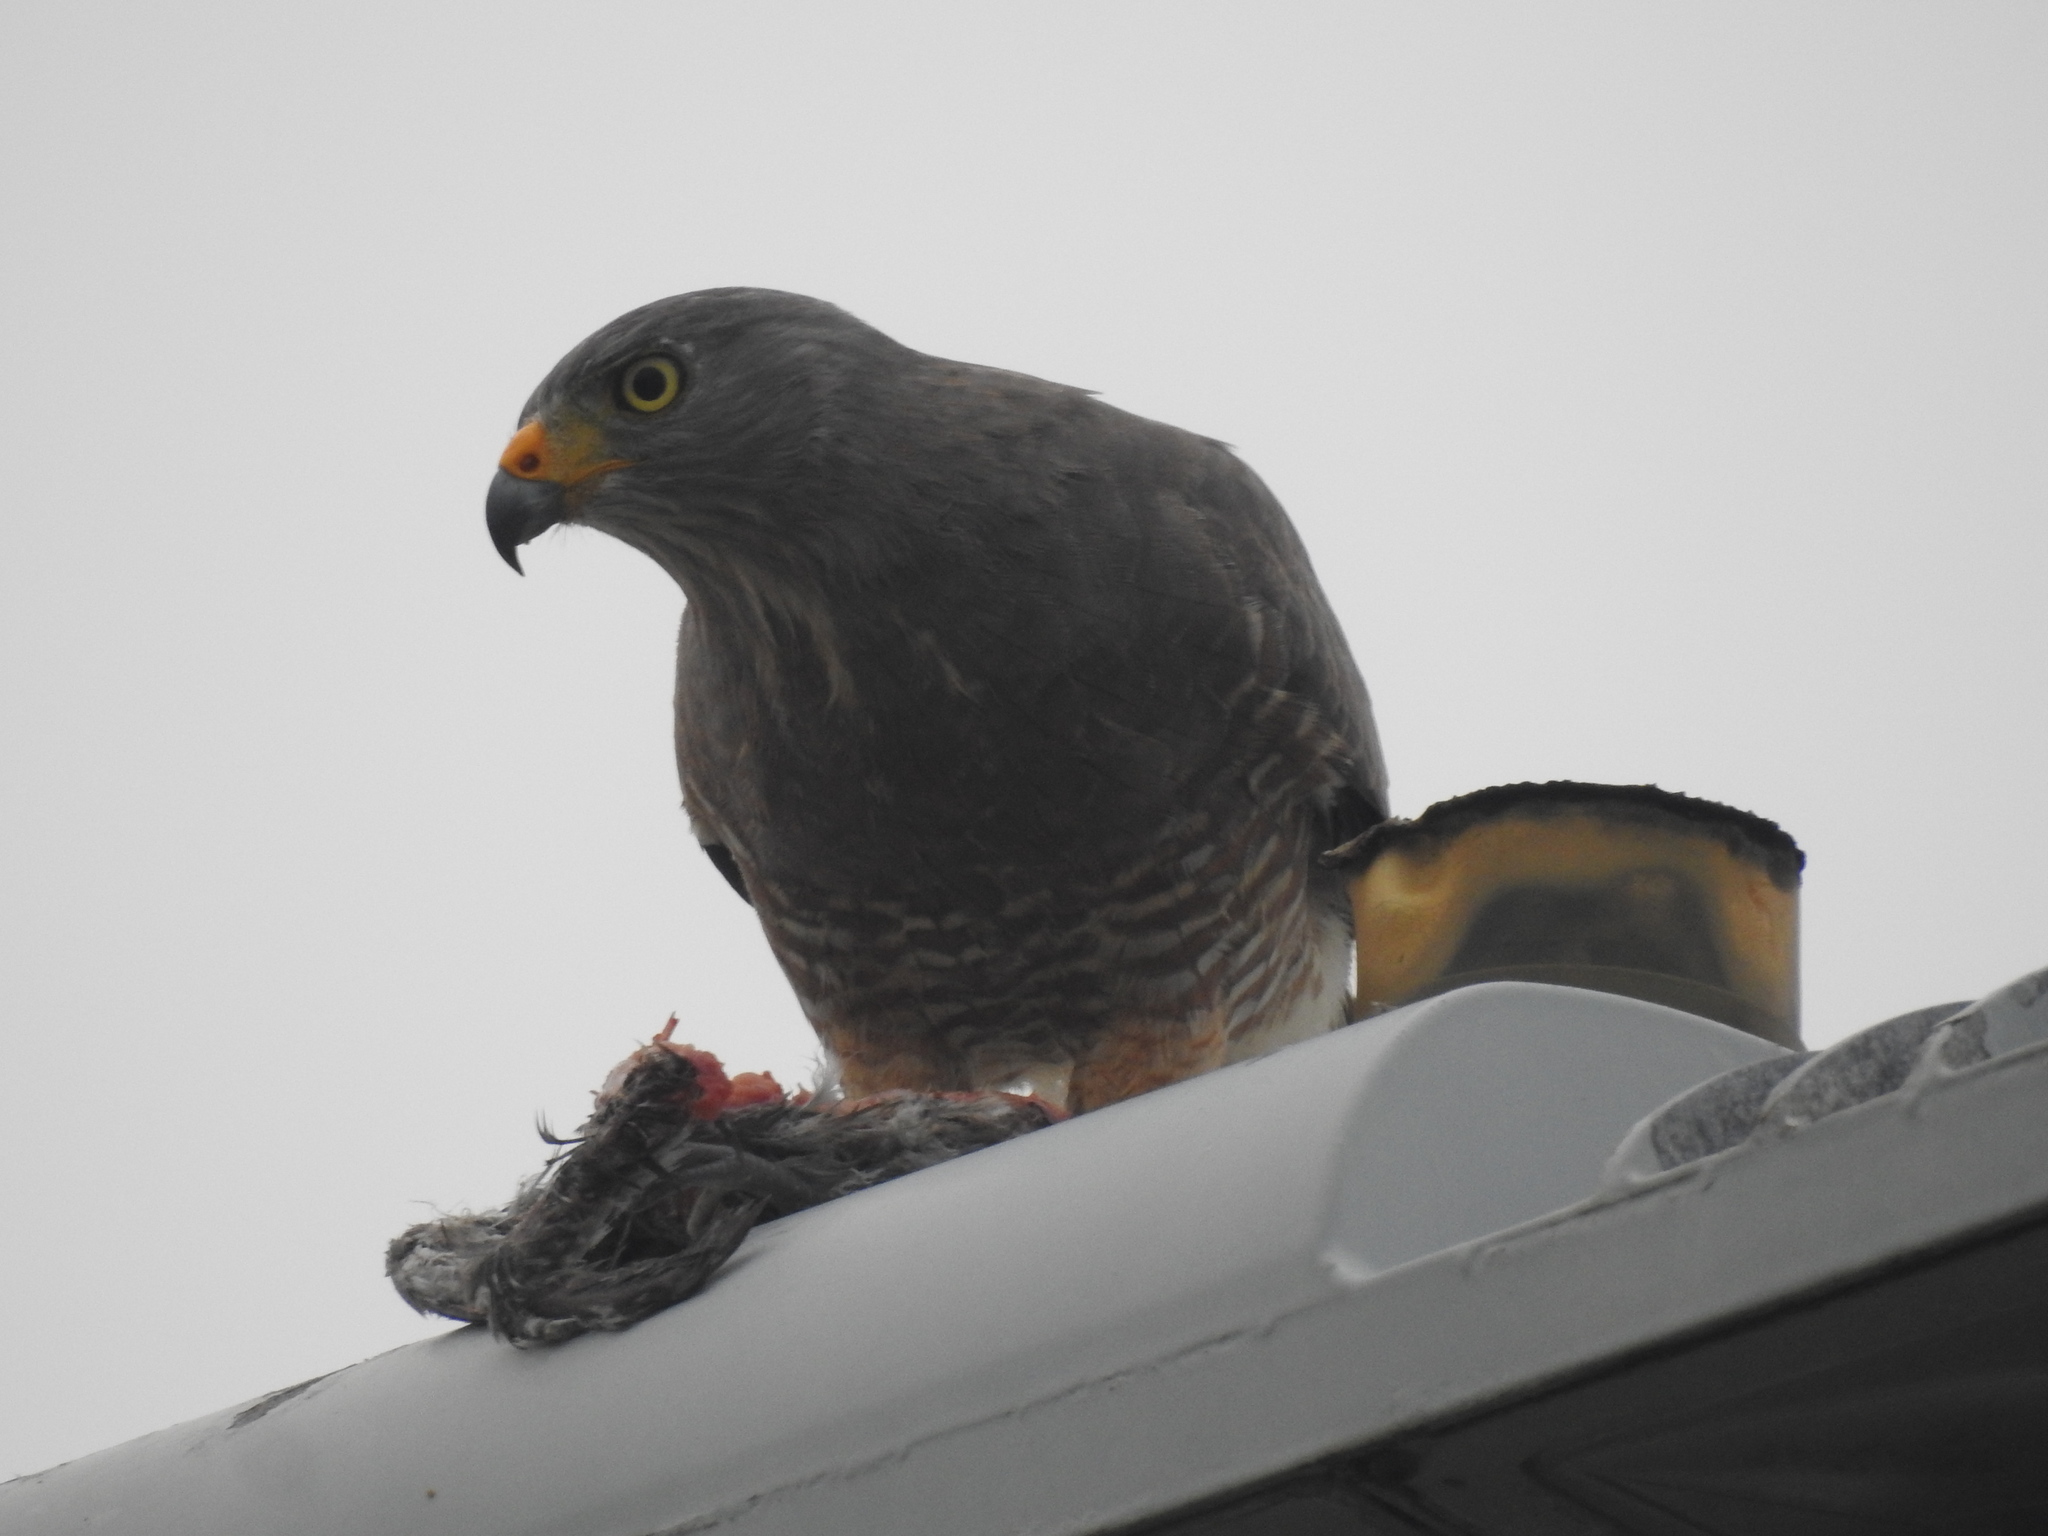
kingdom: Animalia
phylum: Chordata
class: Aves
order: Accipitriformes
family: Accipitridae
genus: Rupornis
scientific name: Rupornis magnirostris
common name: Roadside hawk
